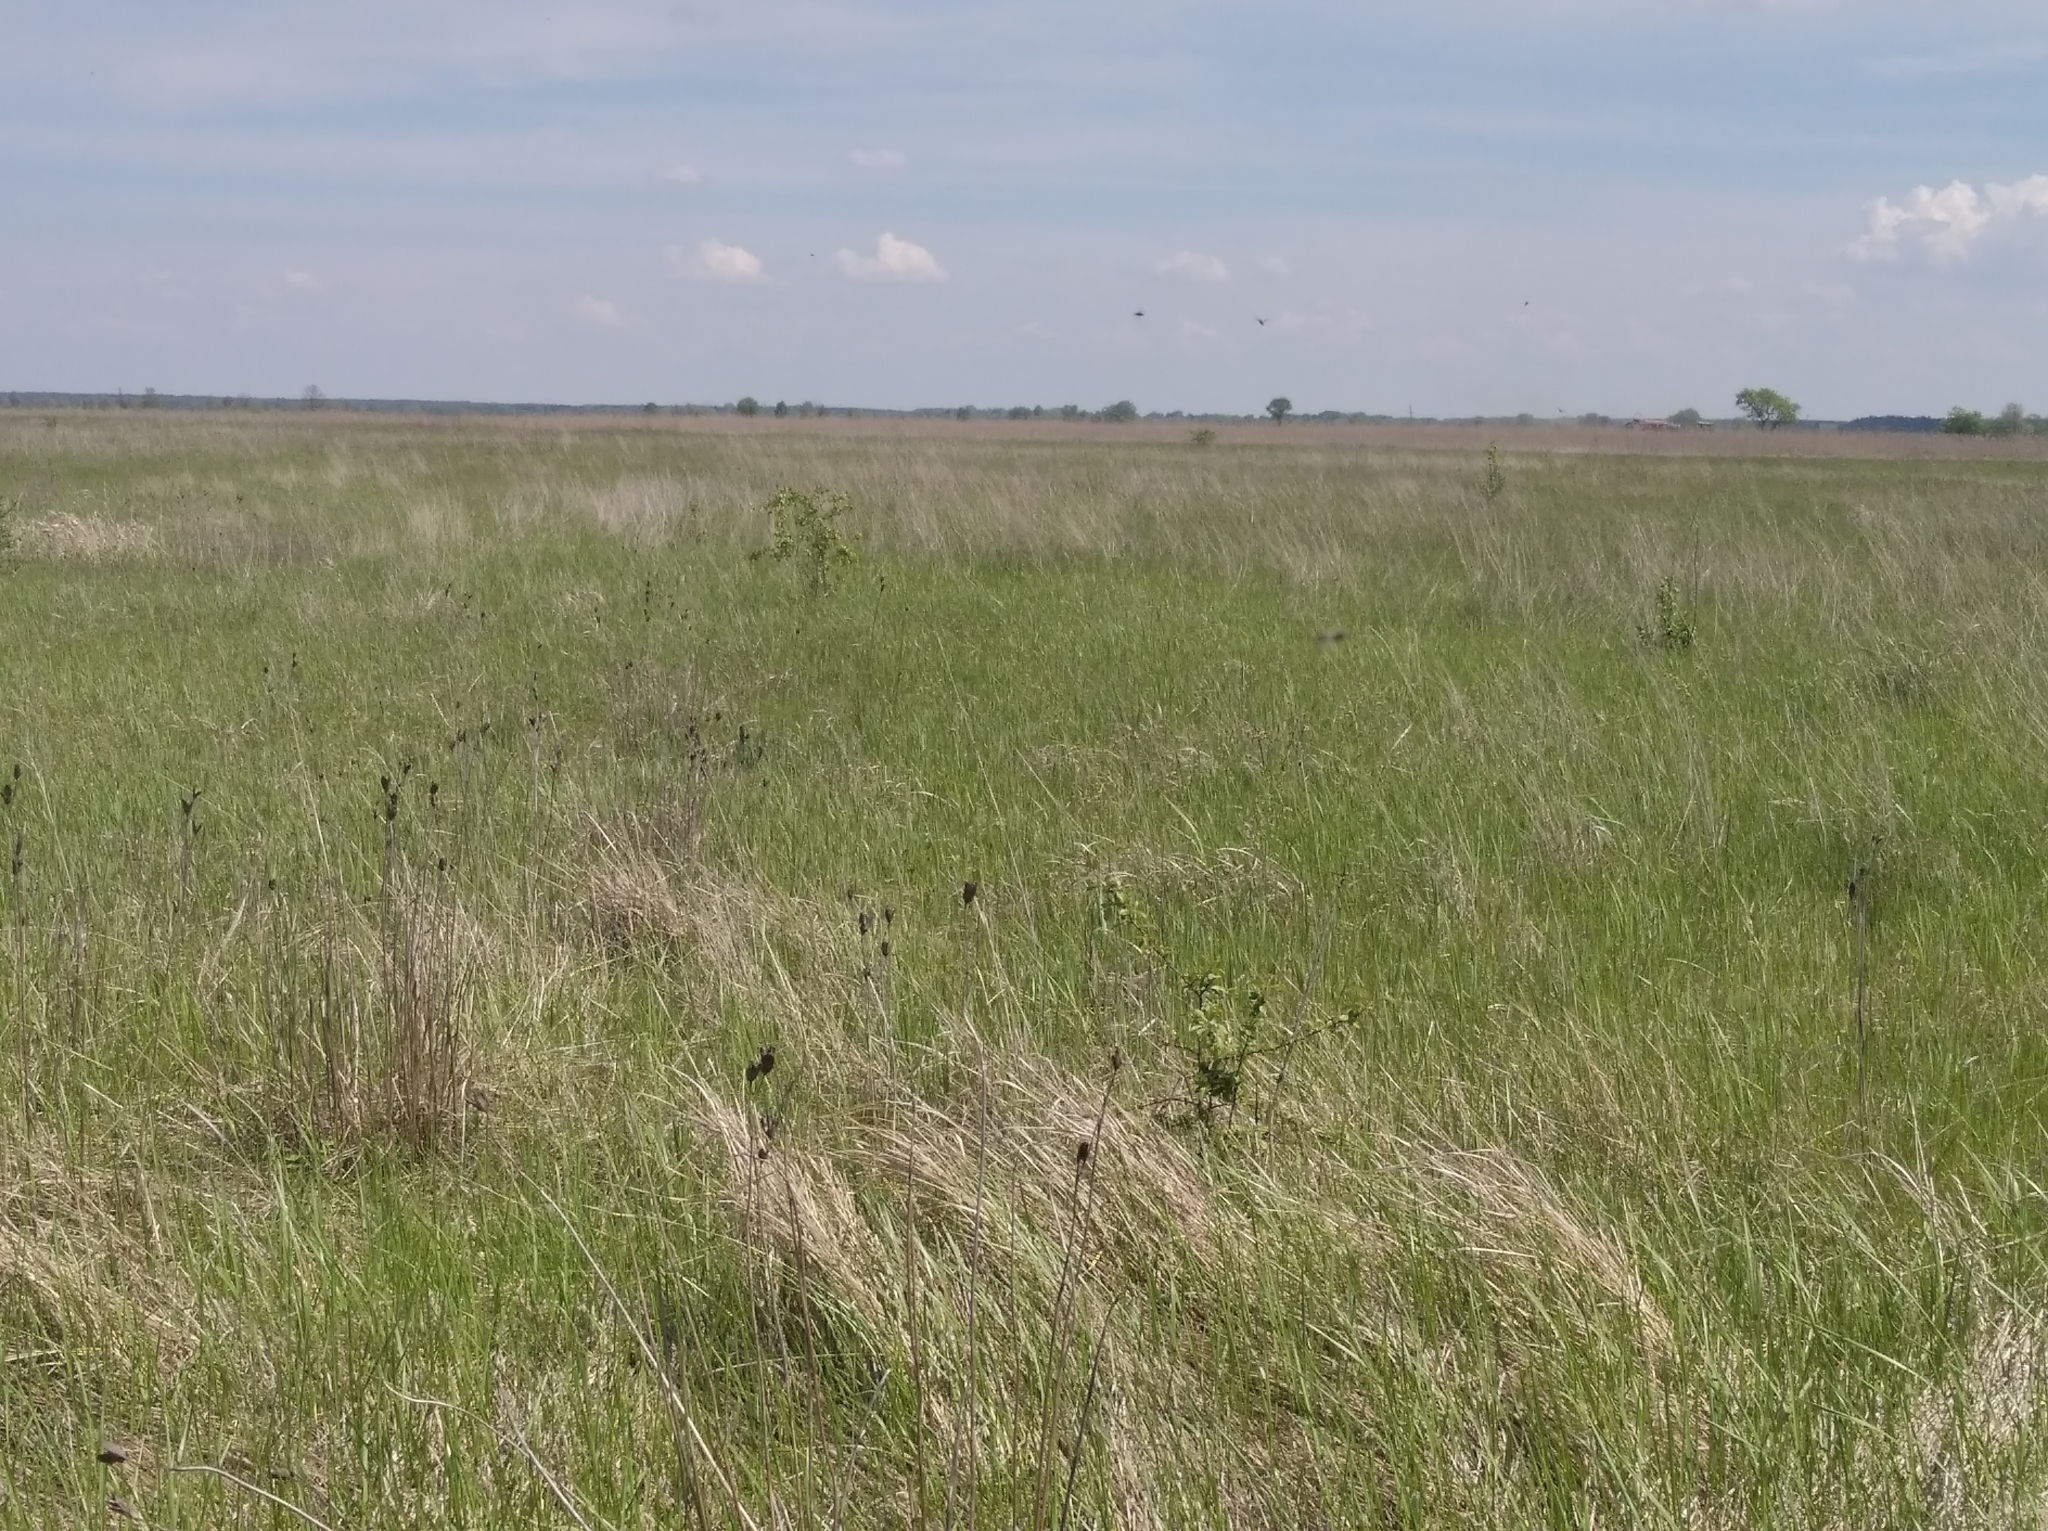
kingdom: Plantae
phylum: Tracheophyta
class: Liliopsida
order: Asparagales
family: Iridaceae
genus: Iris
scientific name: Iris sibirica
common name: Siberian iris
